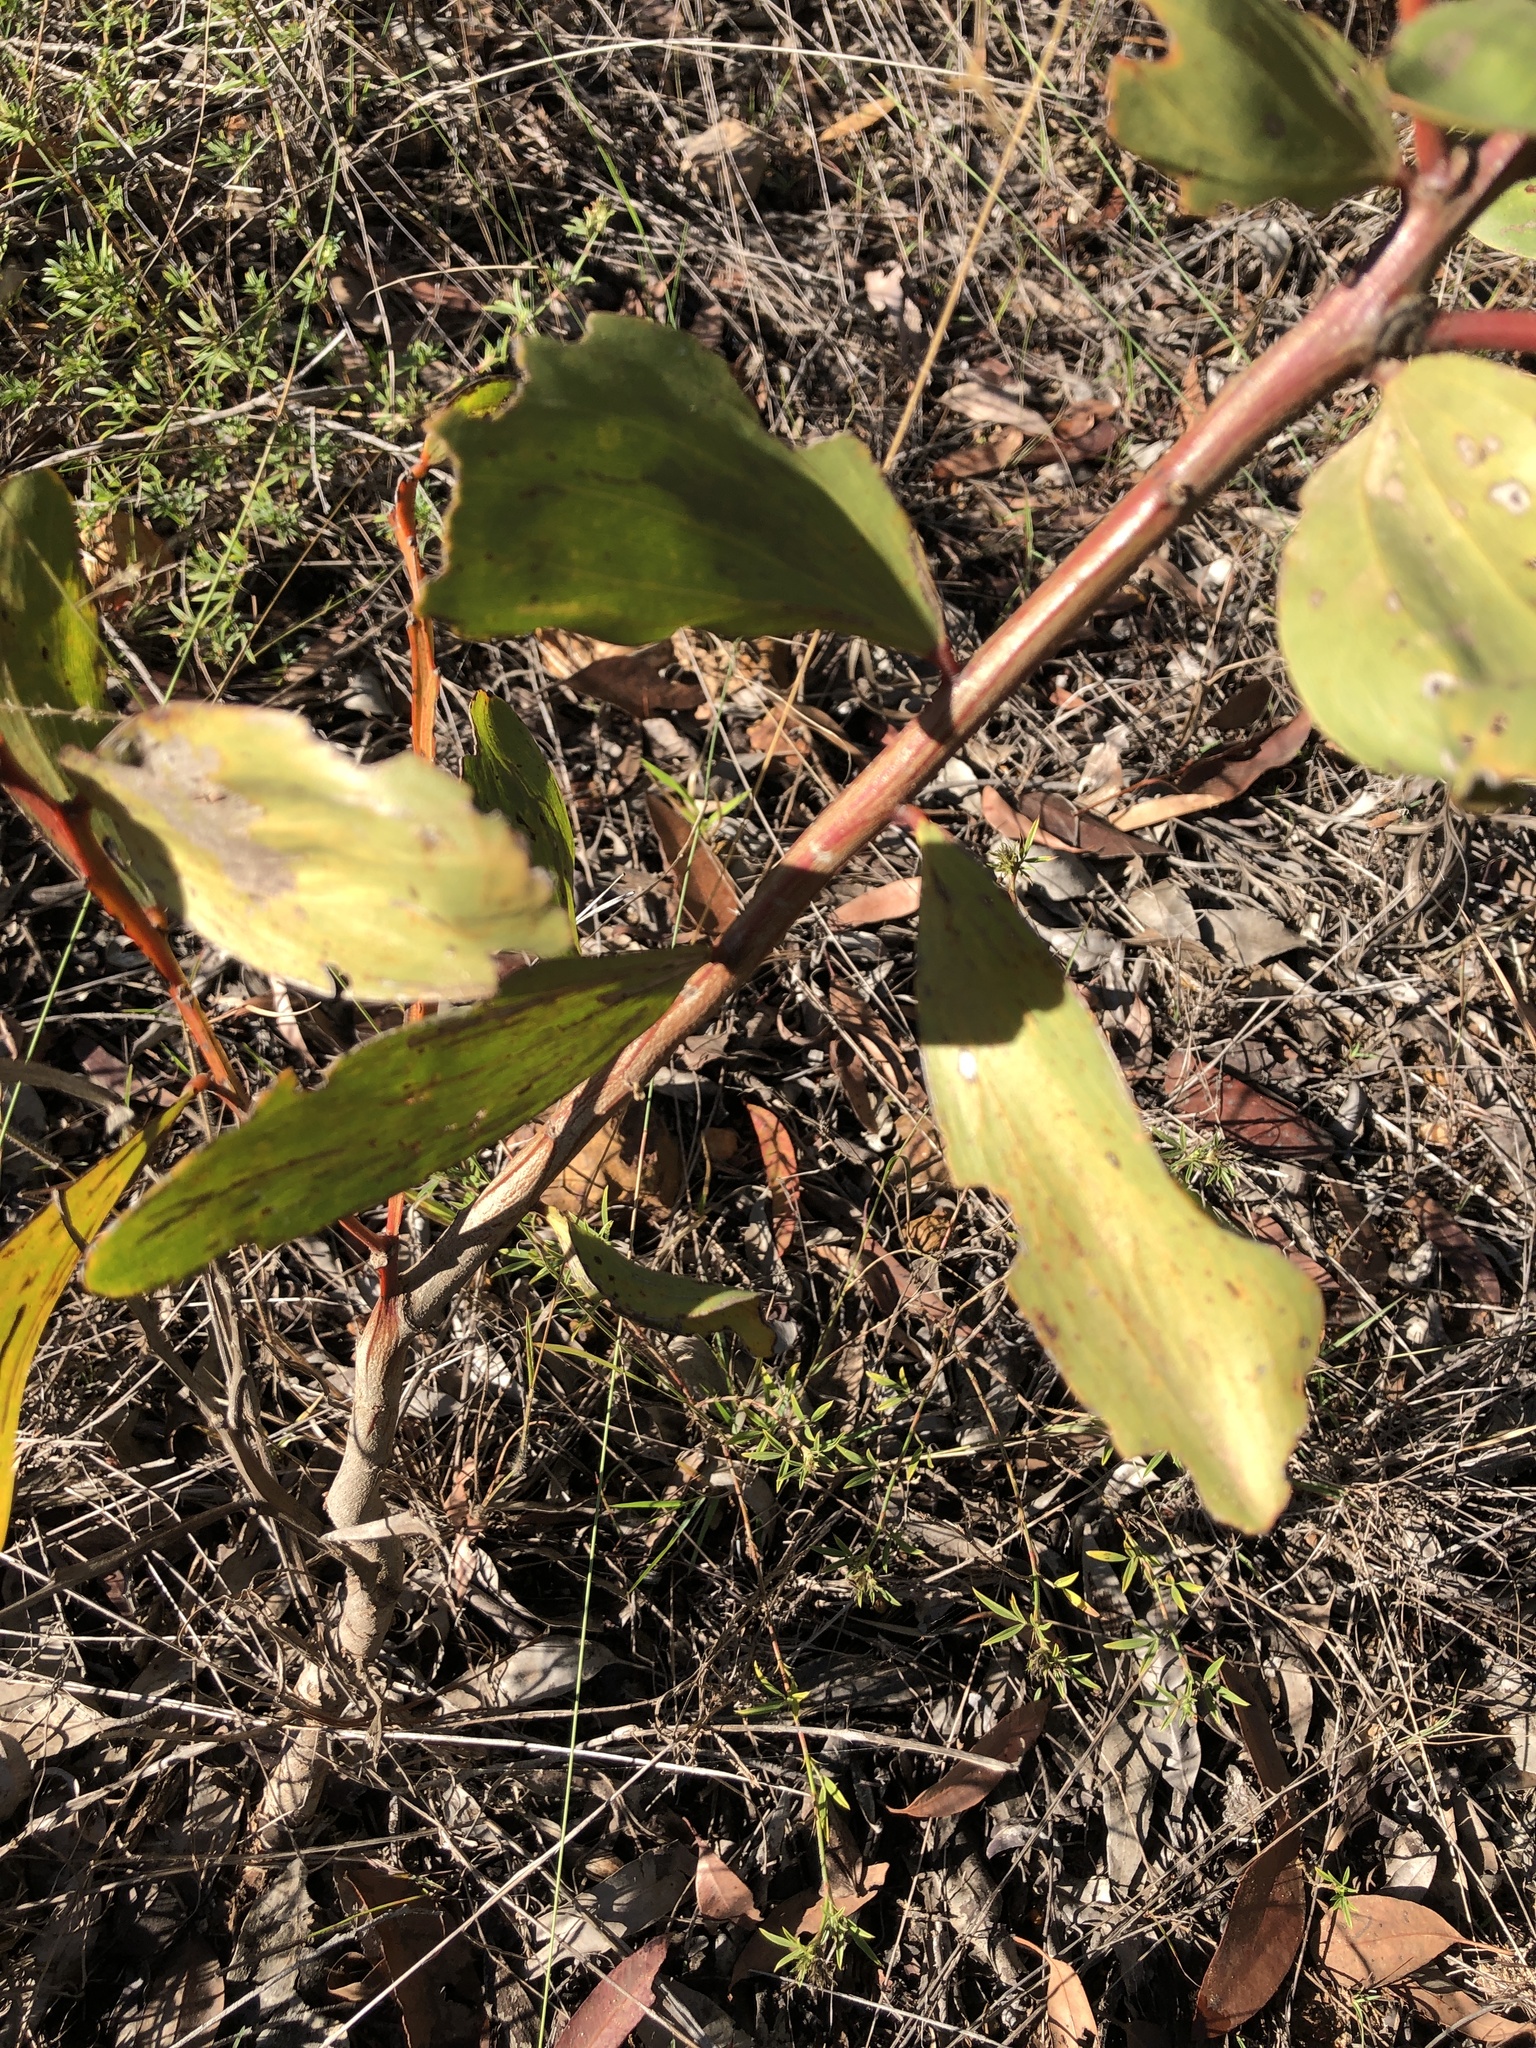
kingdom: Plantae
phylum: Tracheophyta
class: Magnoliopsida
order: Fabales
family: Fabaceae
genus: Acacia
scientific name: Acacia leiocalyx
